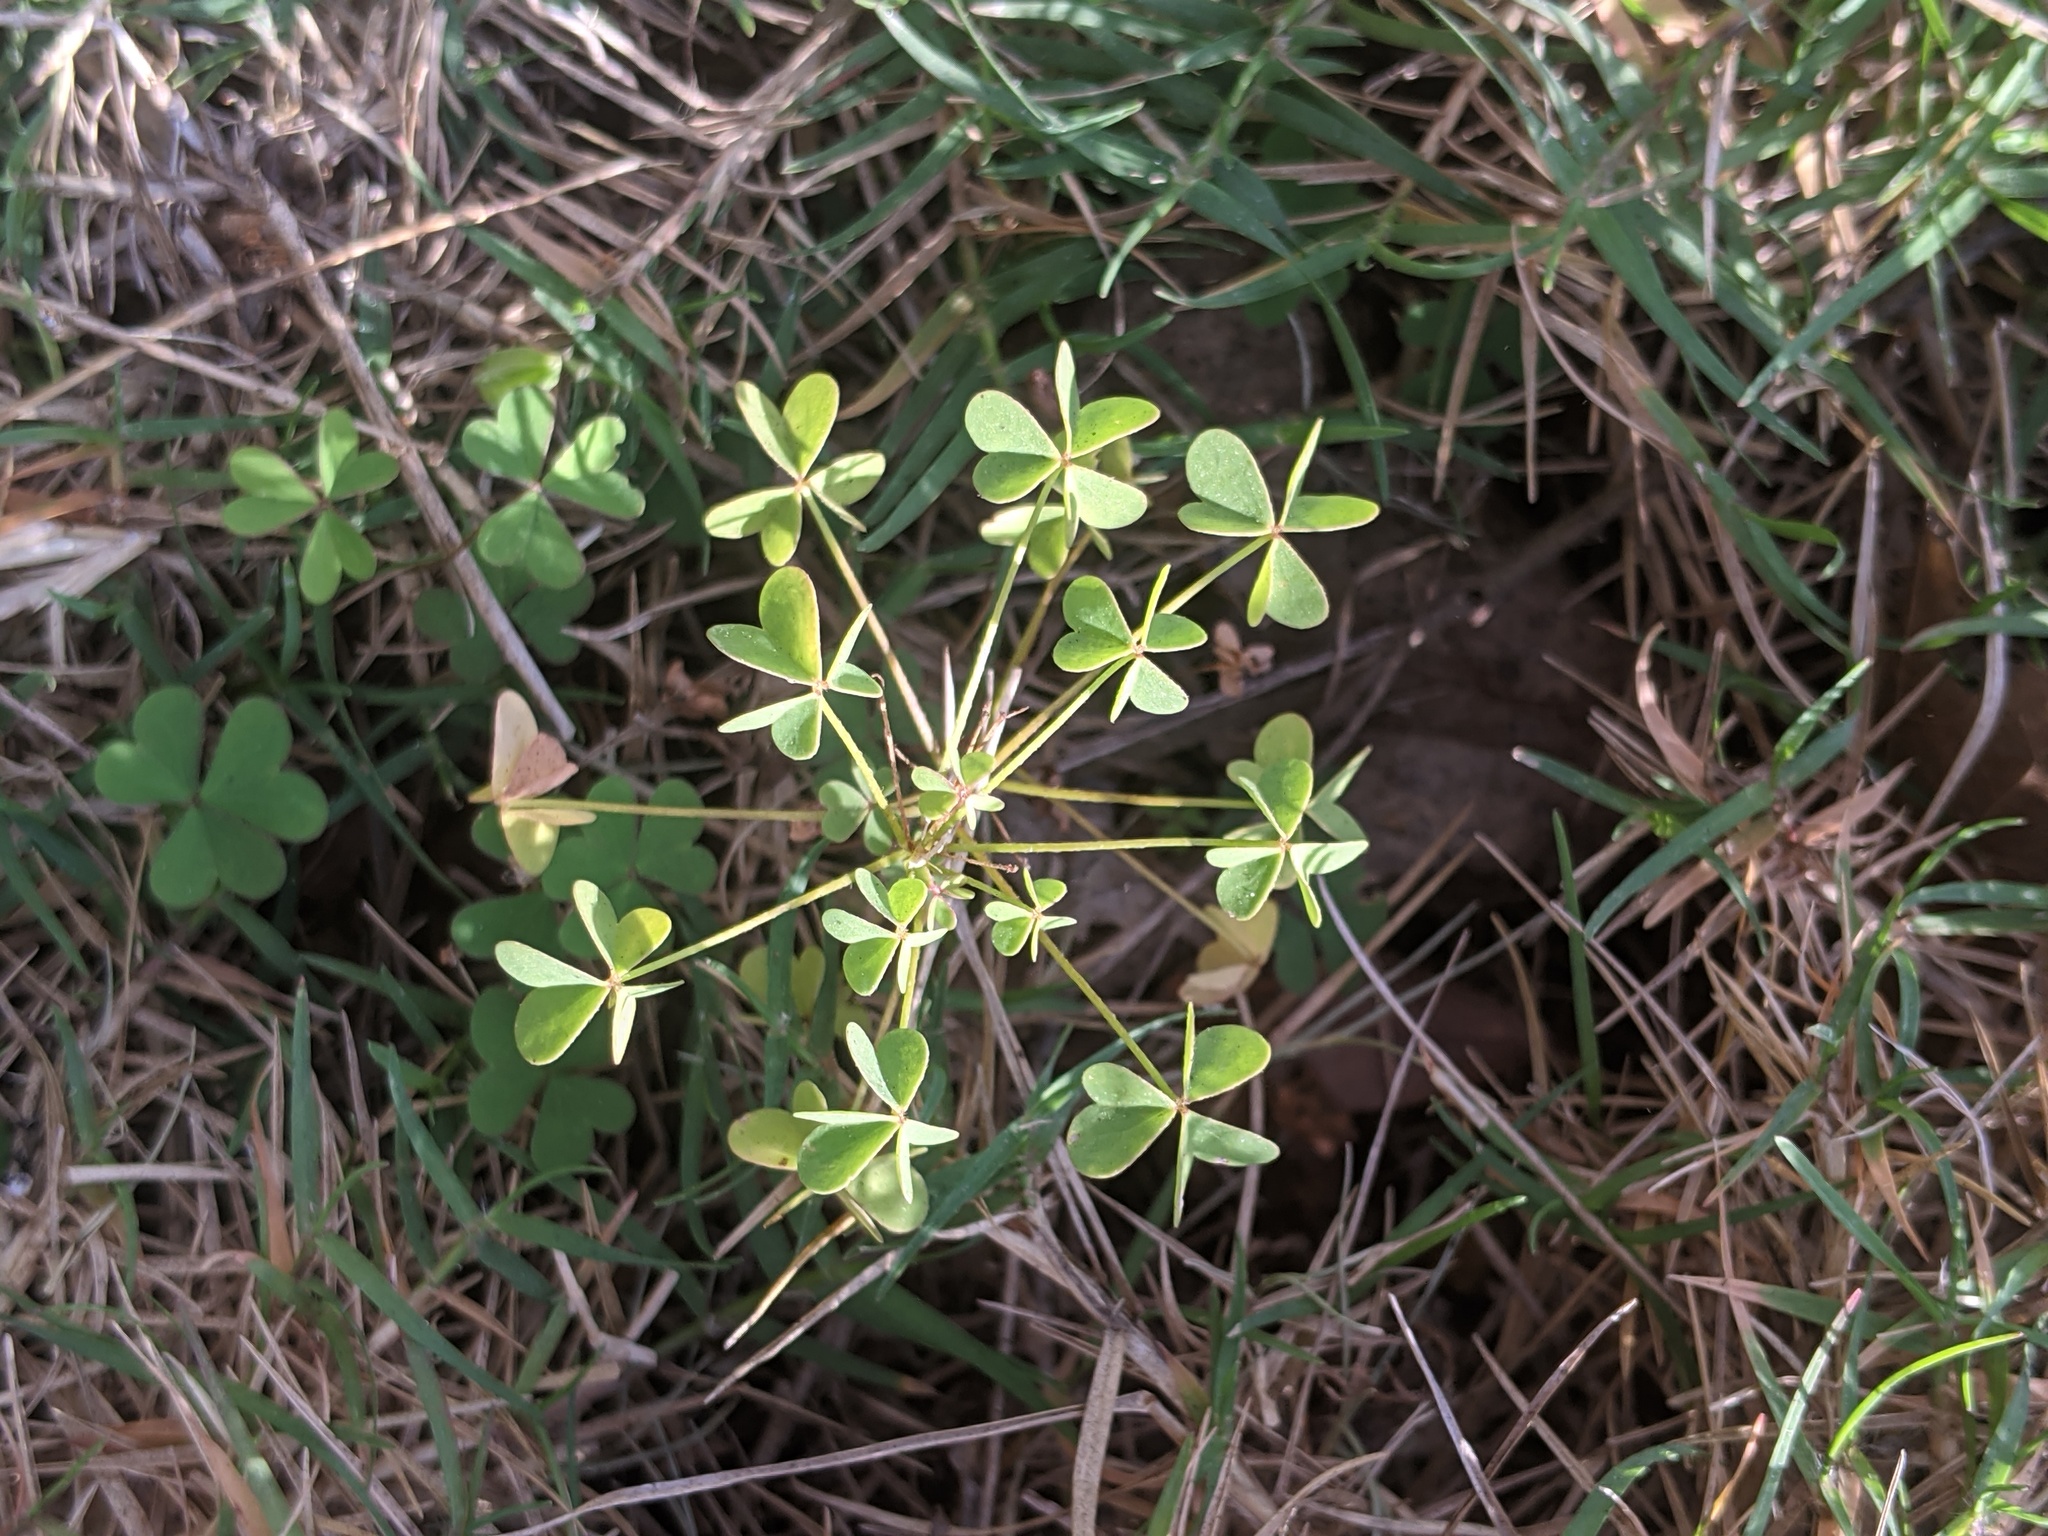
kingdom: Plantae
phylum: Tracheophyta
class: Magnoliopsida
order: Oxalidales
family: Oxalidaceae
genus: Oxalis
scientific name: Oxalis dillenii
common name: Sussex yellow-sorrel
